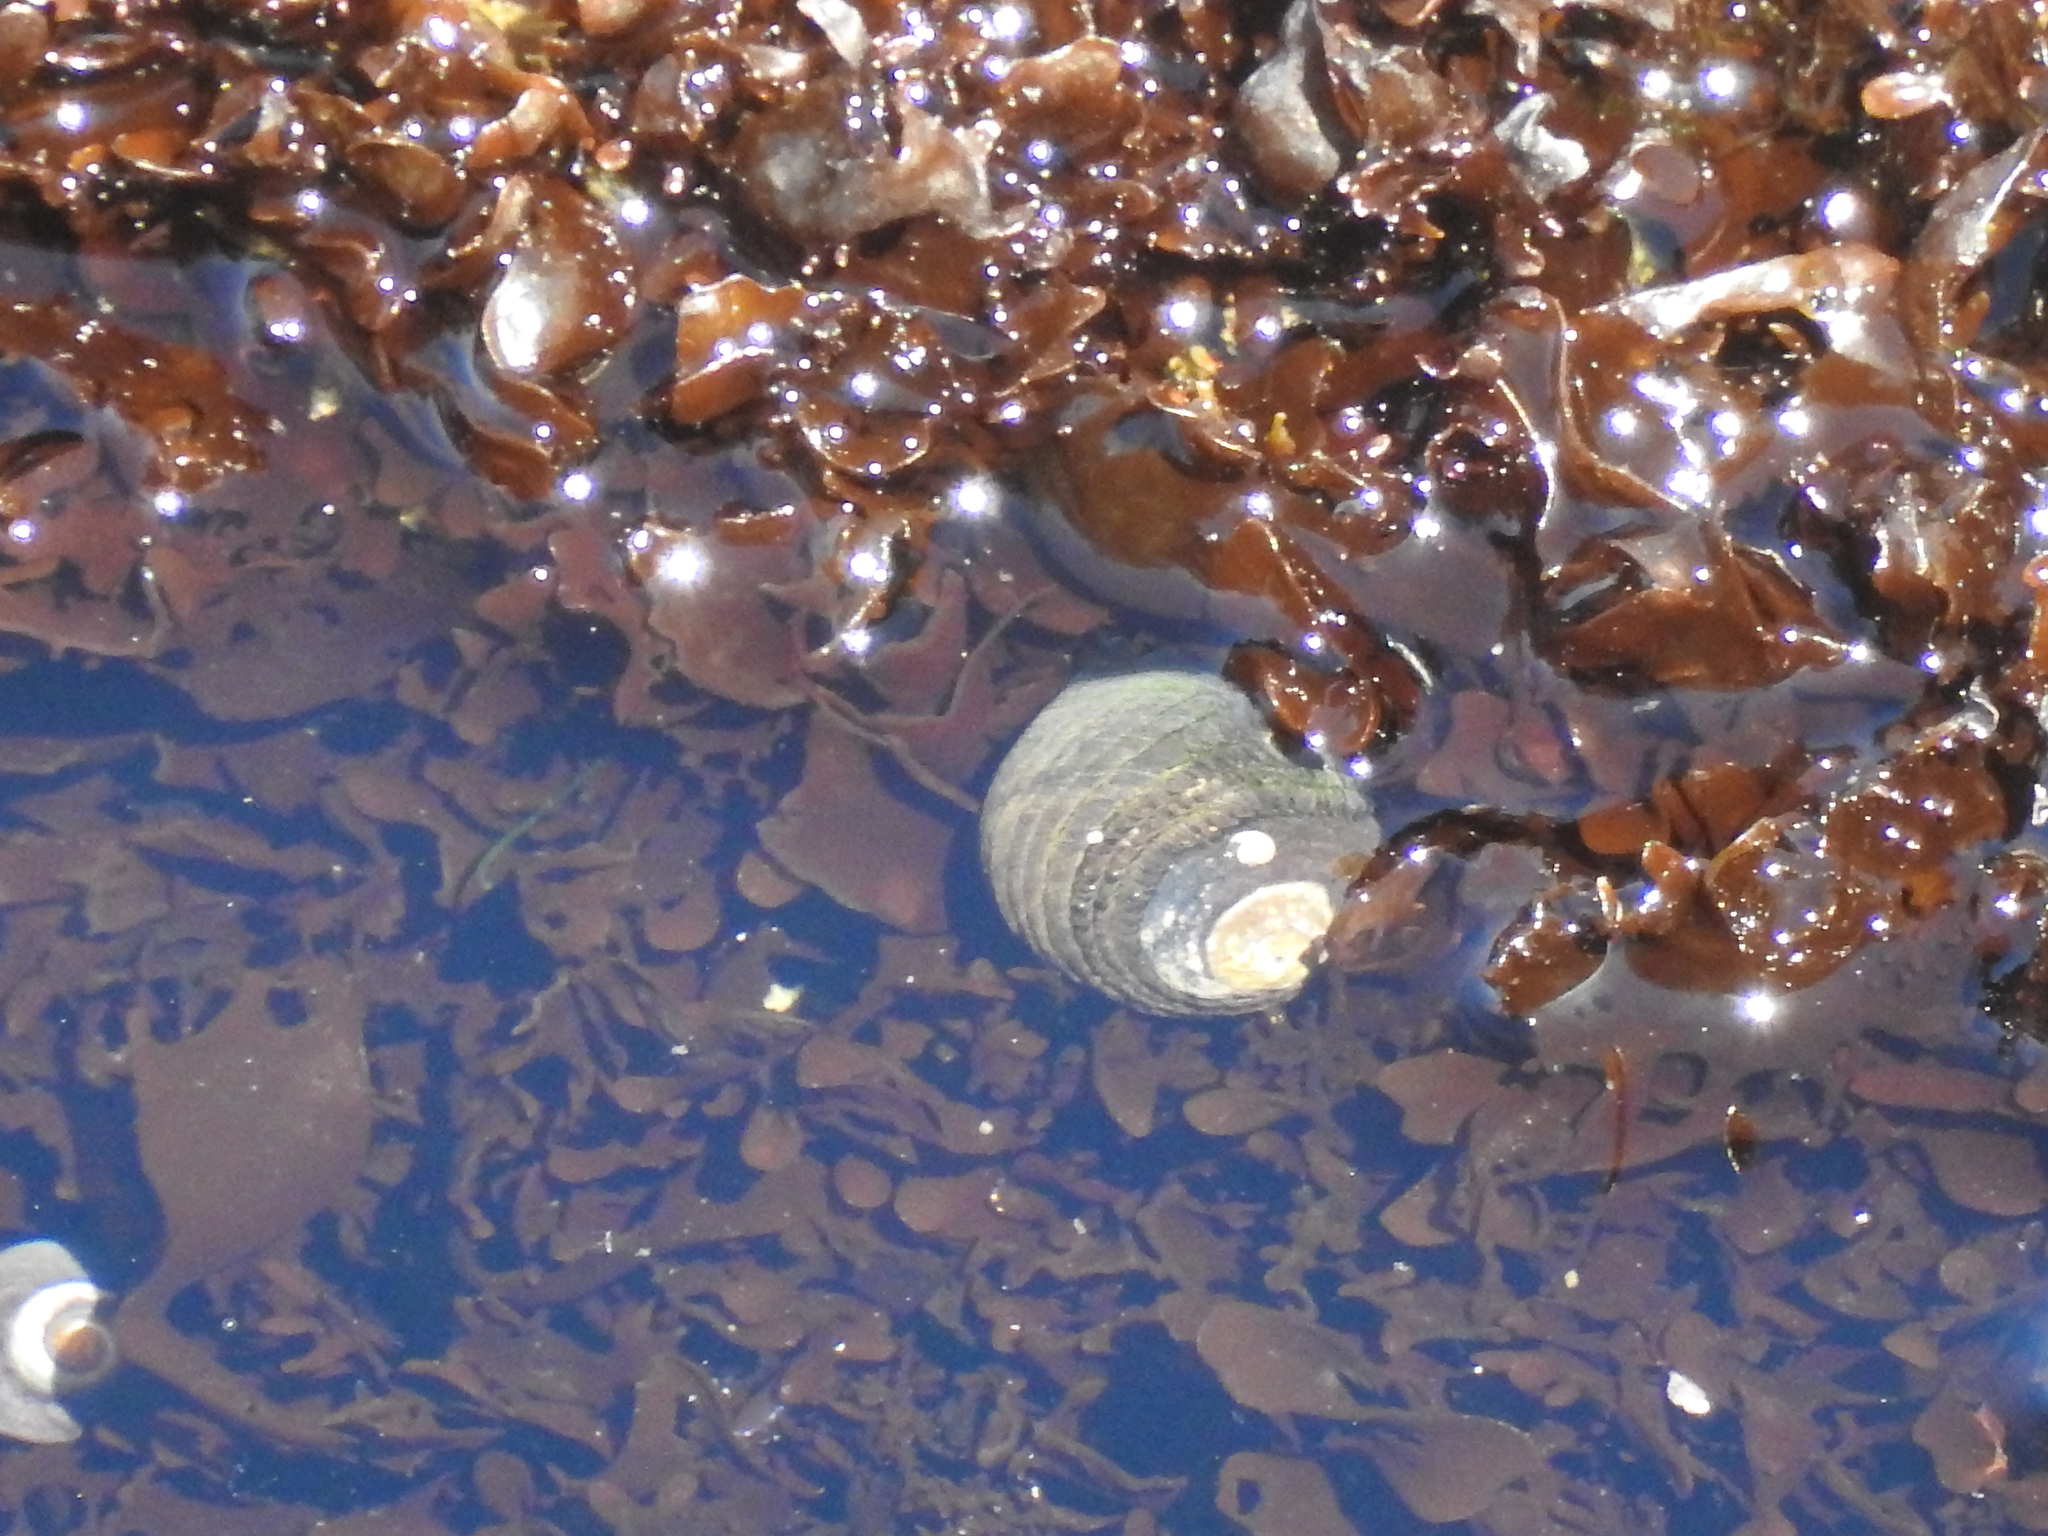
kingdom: Animalia
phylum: Mollusca
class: Gastropoda
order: Trochida
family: Tegulidae
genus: Tegula
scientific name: Tegula funebralis
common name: Black tegula
